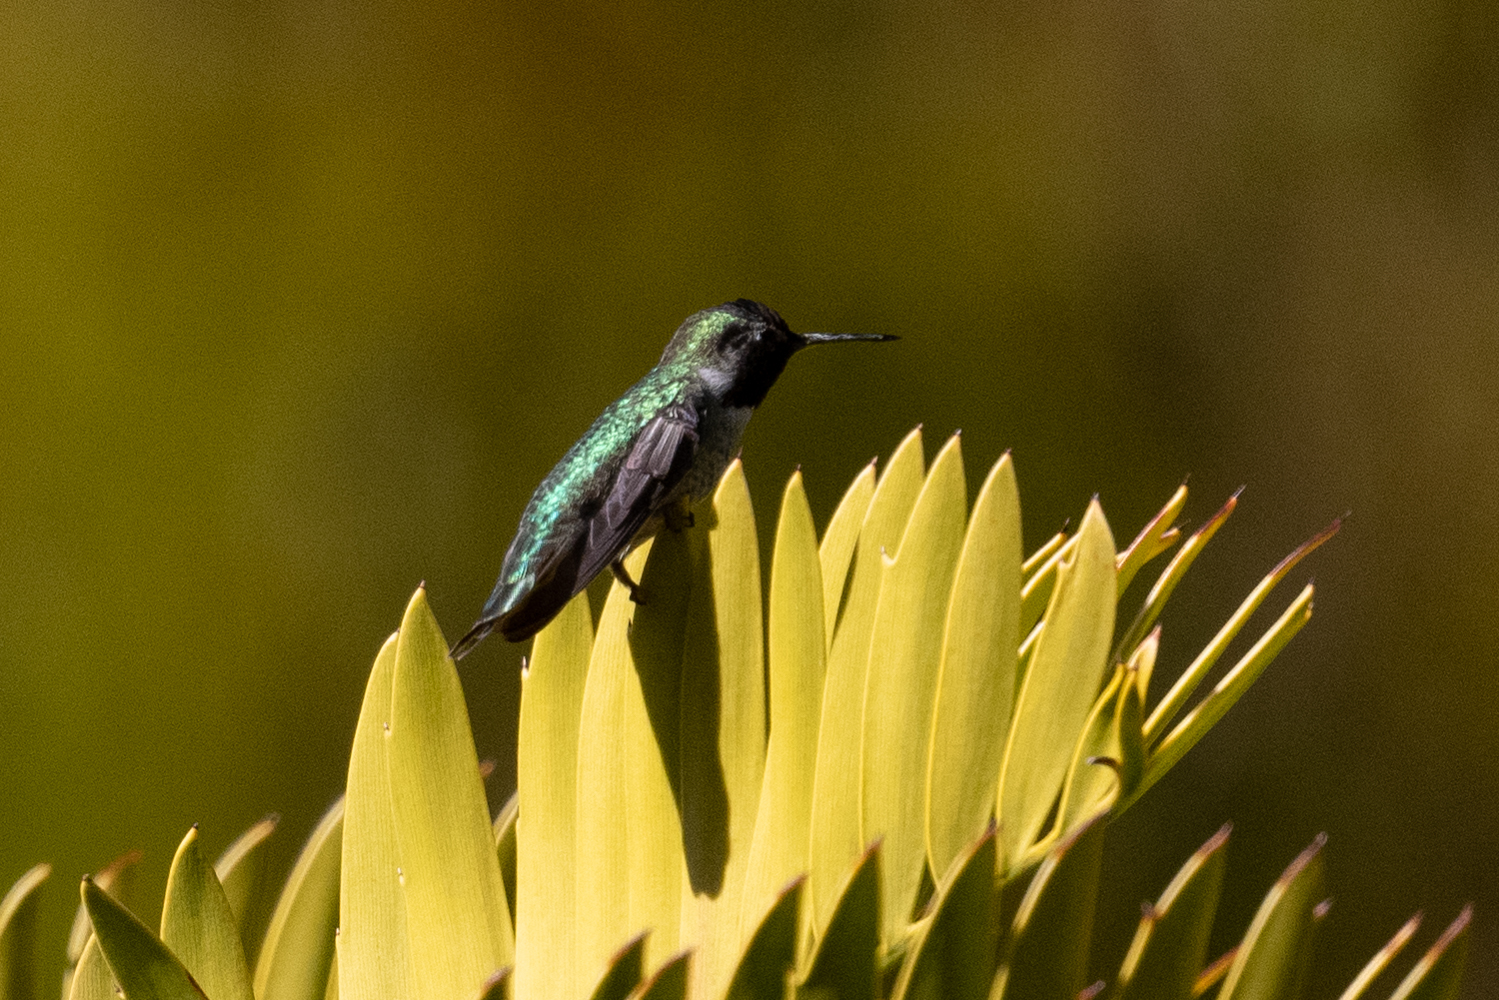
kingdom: Animalia
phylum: Chordata
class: Aves
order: Apodiformes
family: Trochilidae
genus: Calypte
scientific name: Calypte anna
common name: Anna's hummingbird
